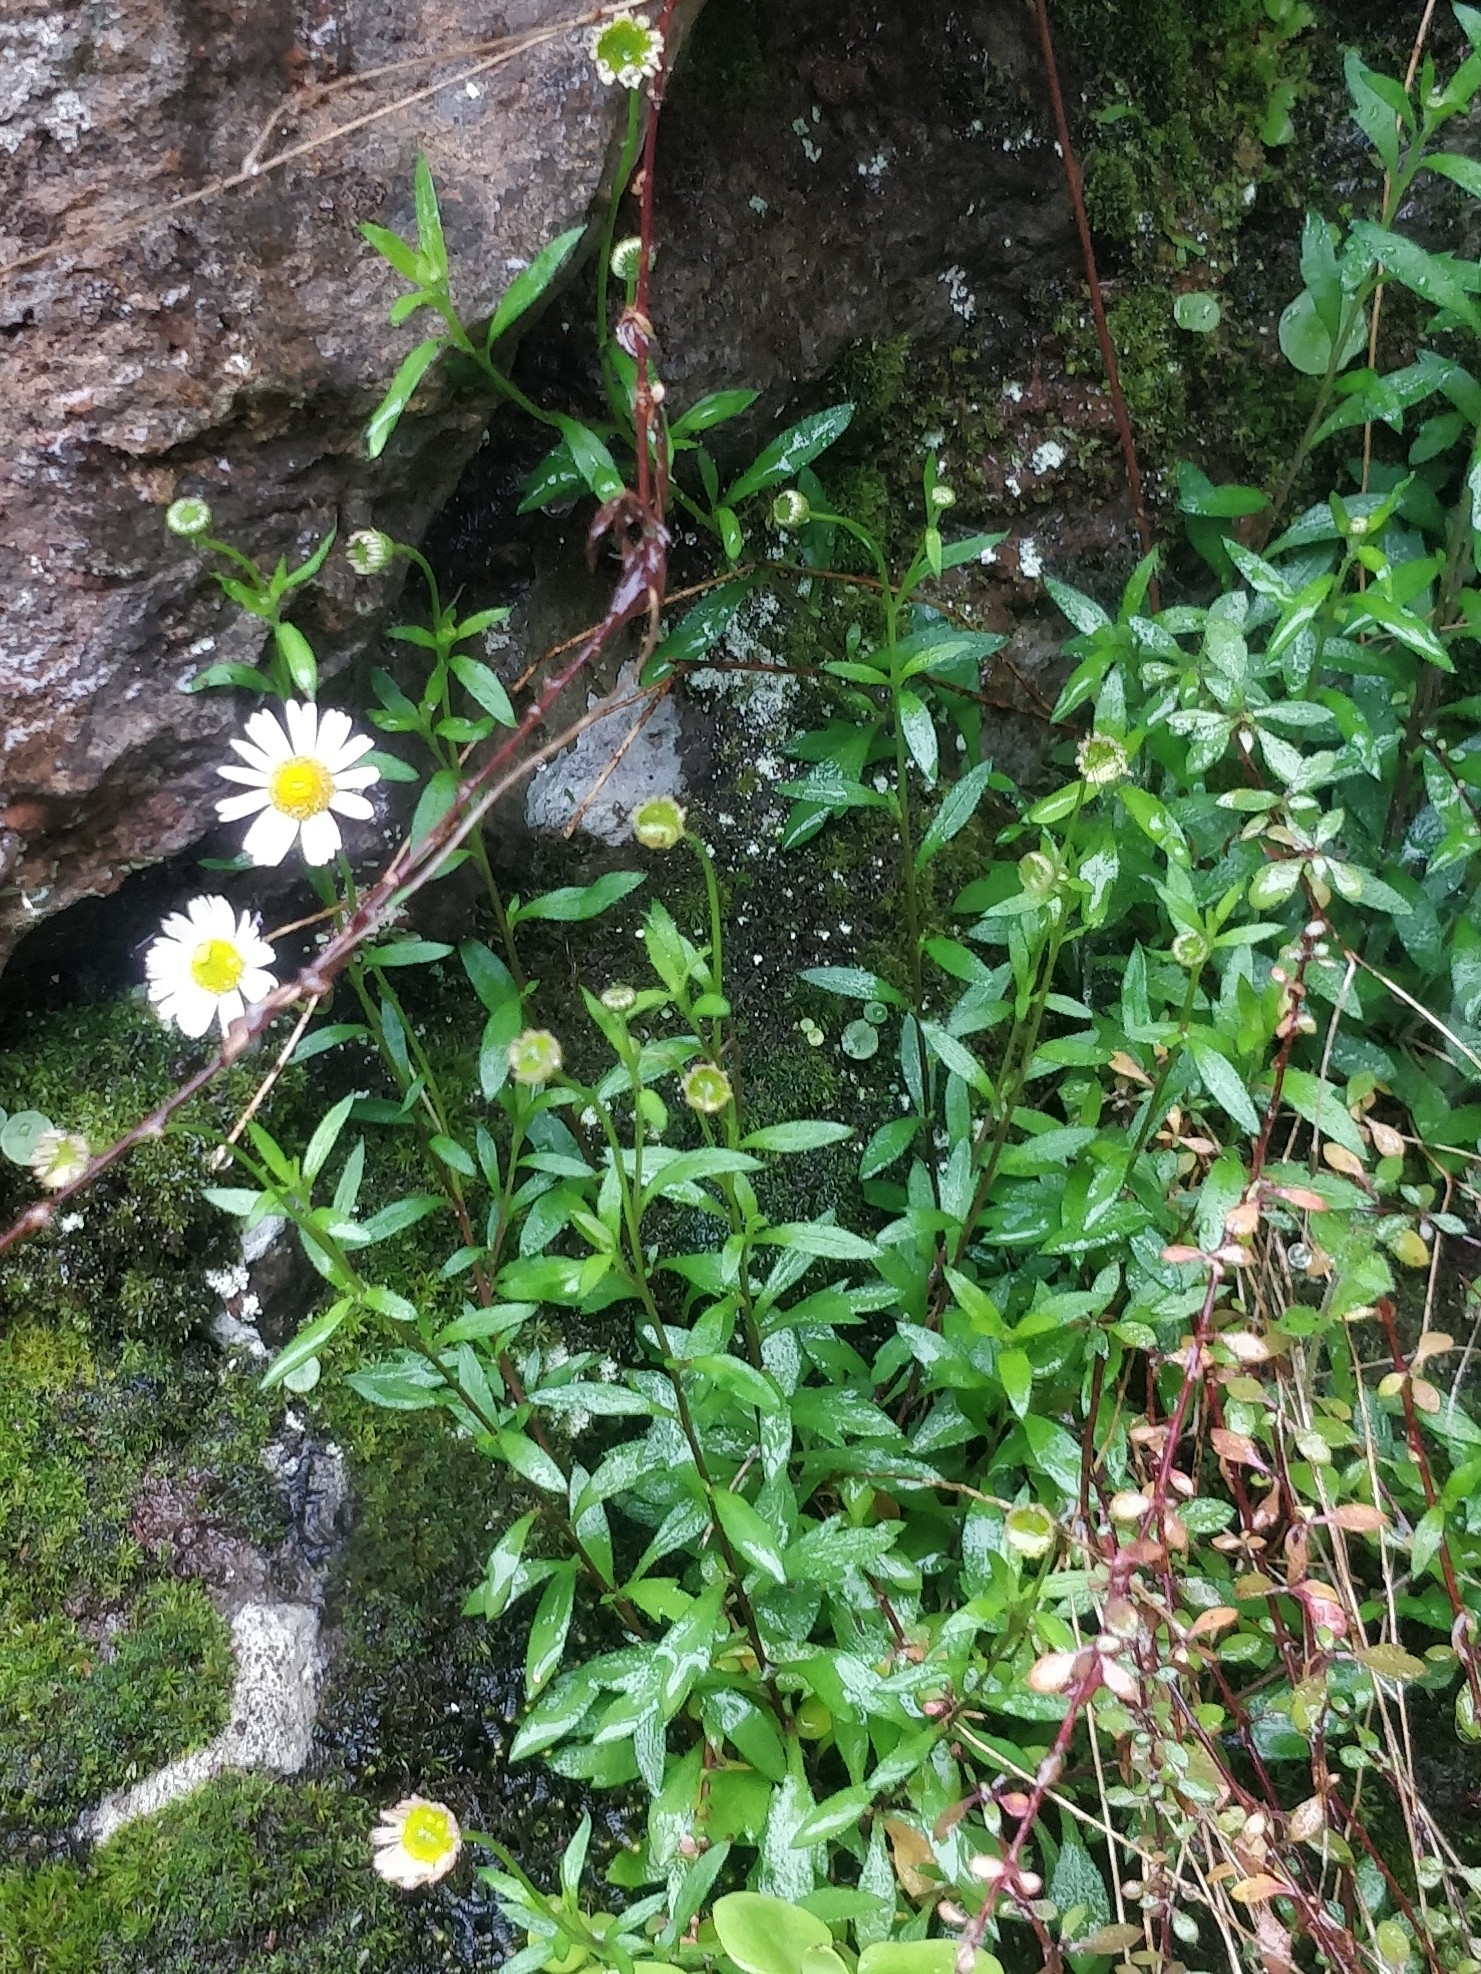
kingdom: Plantae
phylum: Tracheophyta
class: Magnoliopsida
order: Asterales
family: Asteraceae
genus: Erigeron
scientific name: Erigeron karvinskianus
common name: Mexican fleabane
